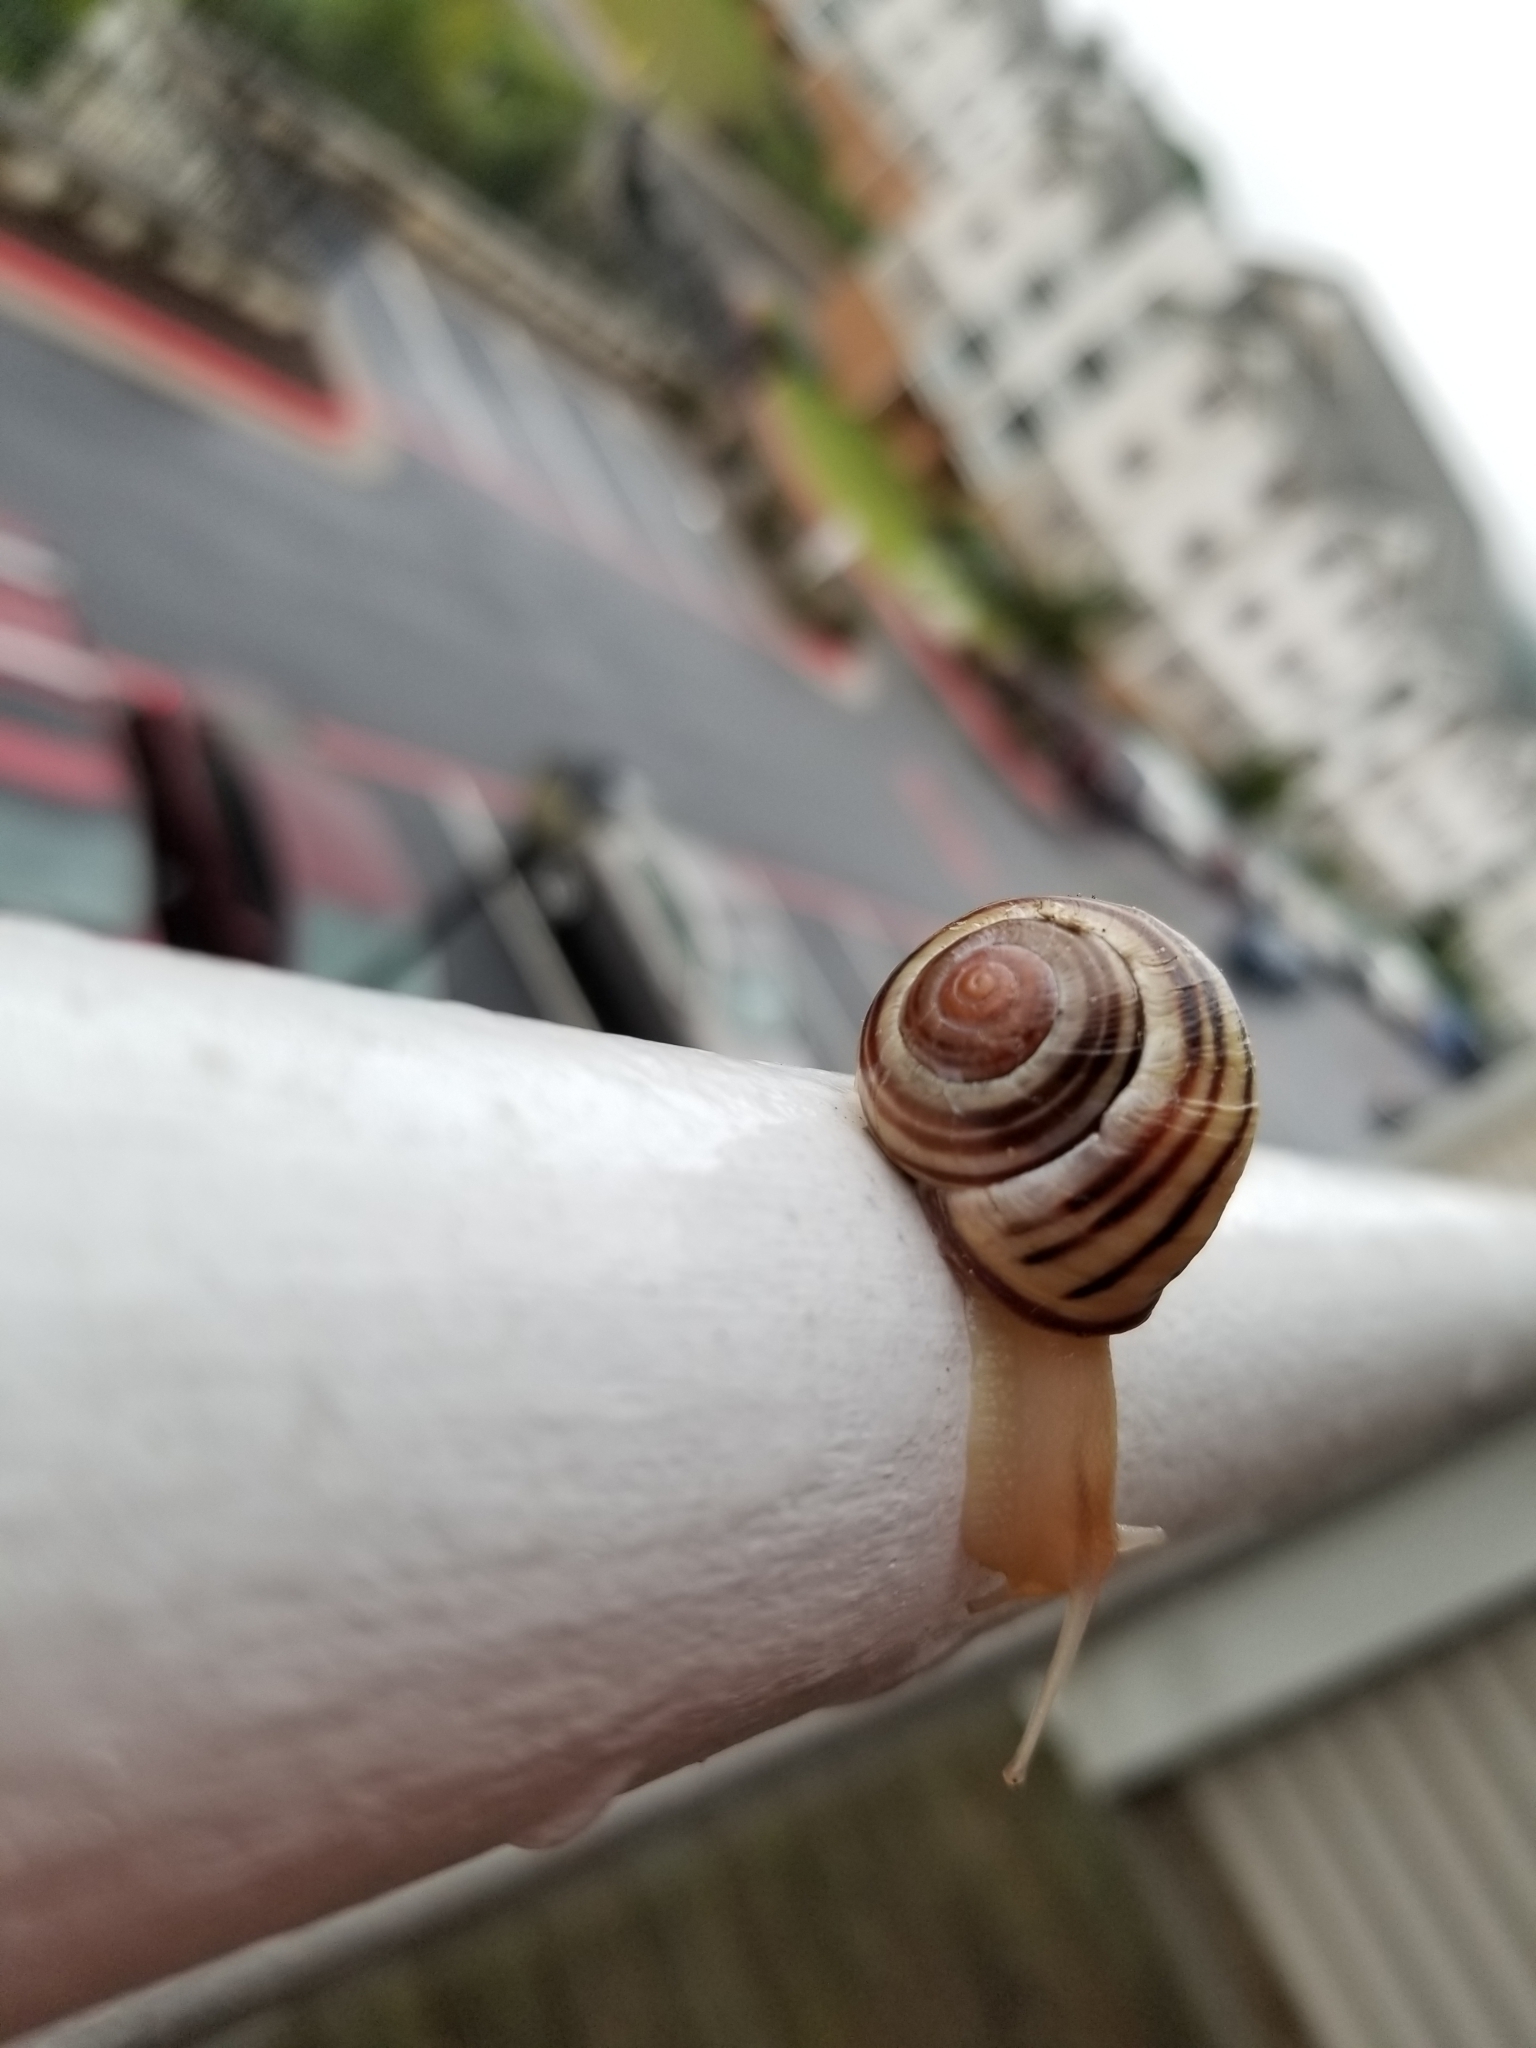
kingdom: Animalia
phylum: Mollusca
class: Gastropoda
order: Stylommatophora
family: Helicidae
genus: Cepaea
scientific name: Cepaea nemoralis
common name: Grovesnail
